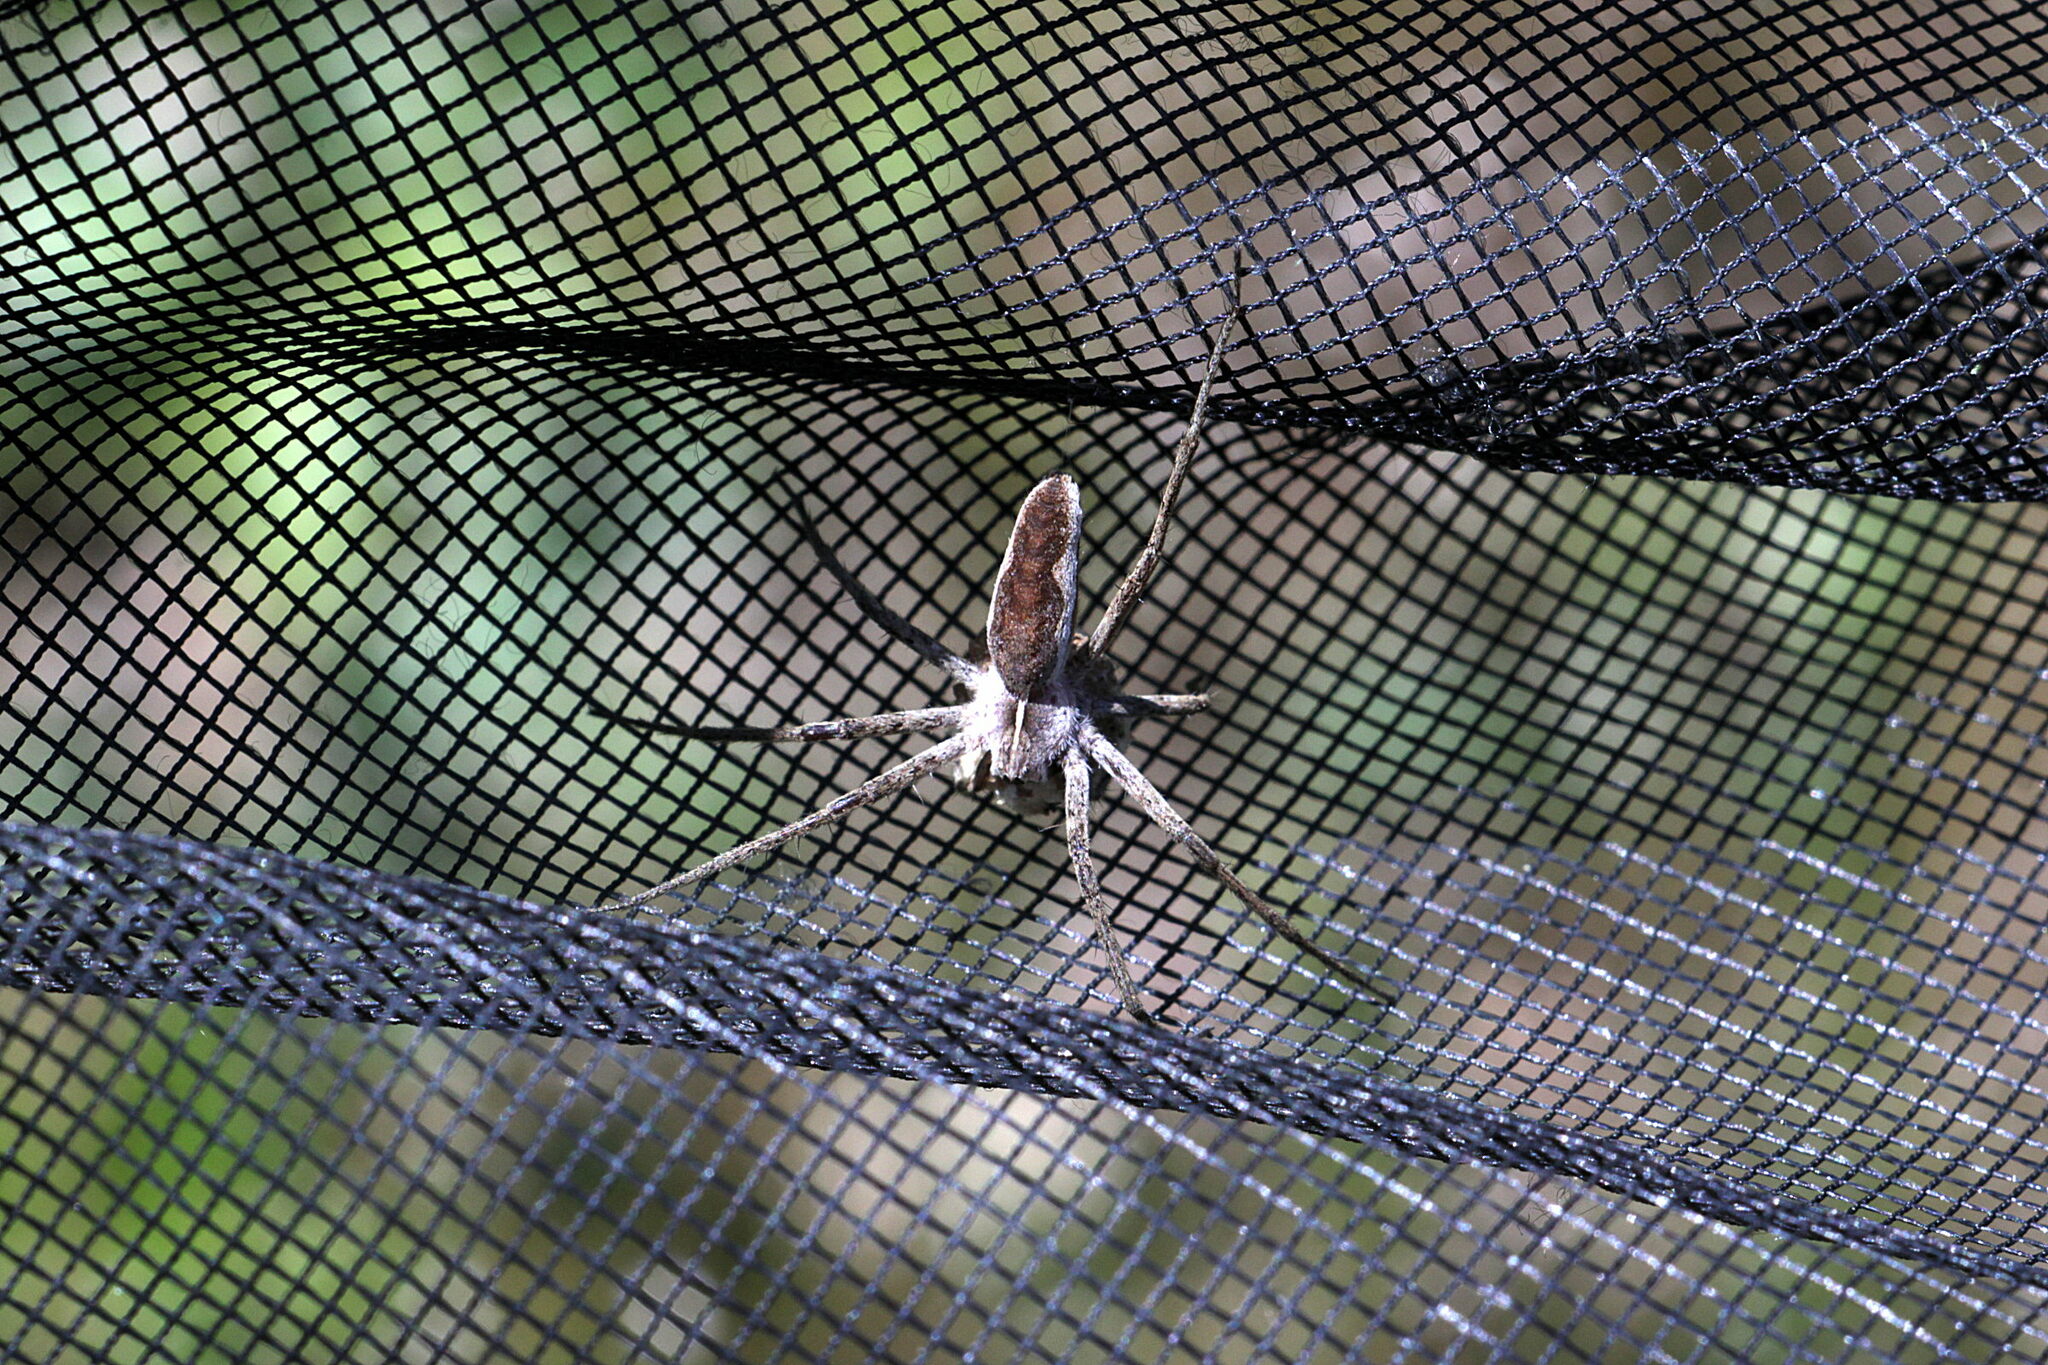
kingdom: Animalia
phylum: Arthropoda
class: Arachnida
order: Araneae
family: Pisauridae
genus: Pisaura
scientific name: Pisaura mirabilis
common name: Tent spider
